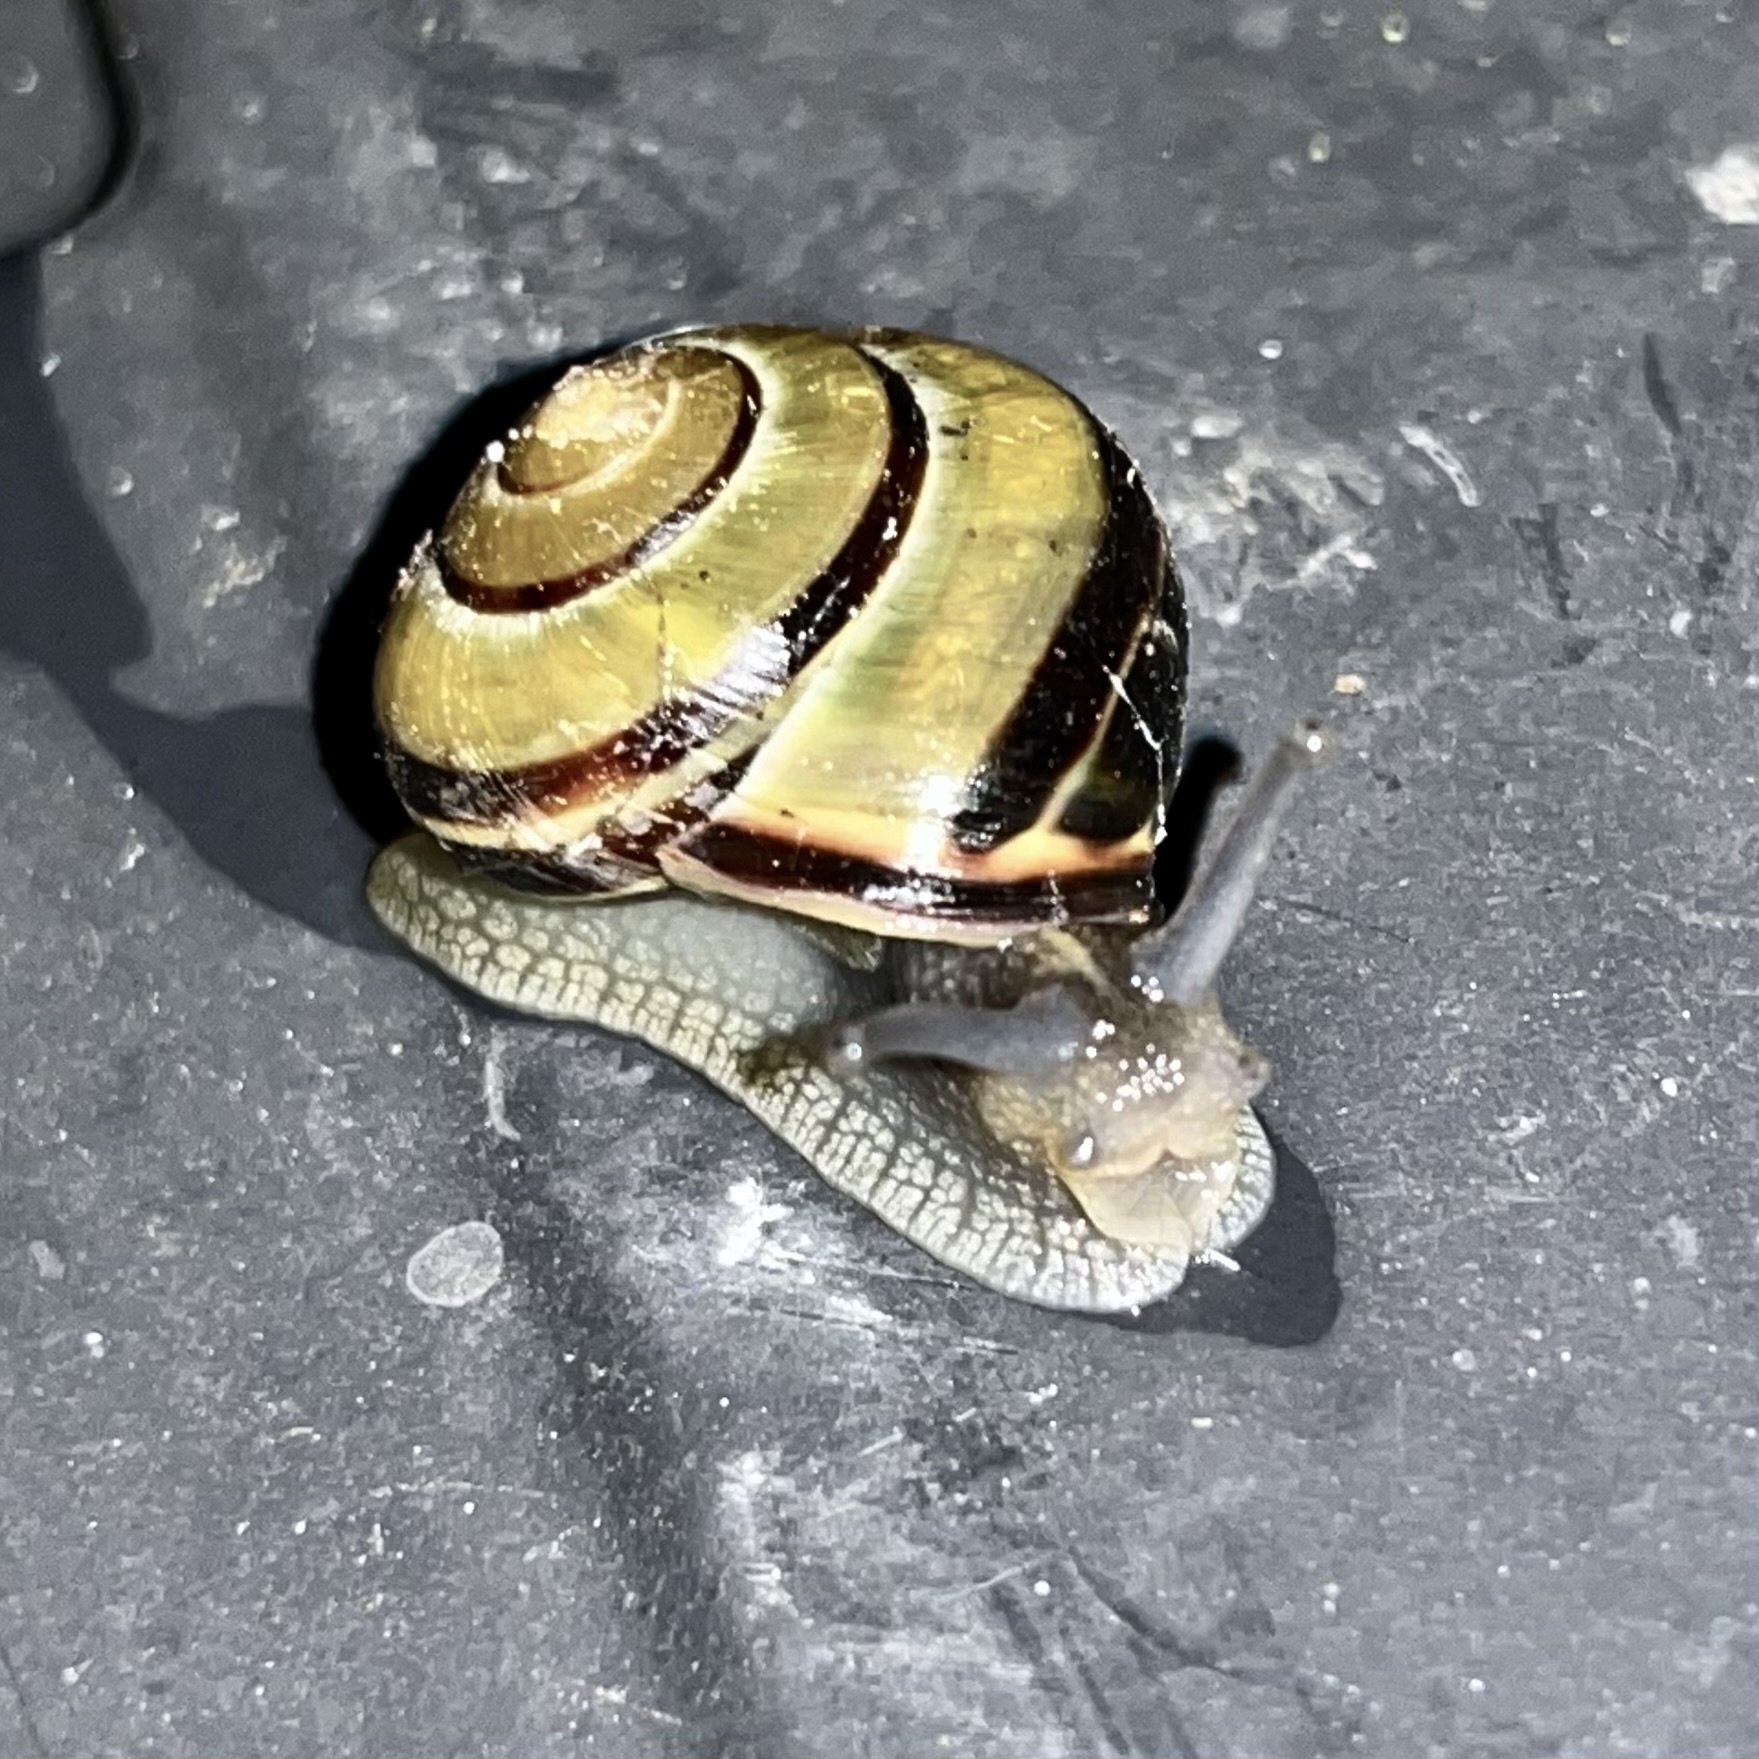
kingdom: Animalia
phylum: Mollusca
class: Gastropoda
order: Stylommatophora
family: Helicidae
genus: Cepaea
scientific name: Cepaea nemoralis
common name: Grovesnail
